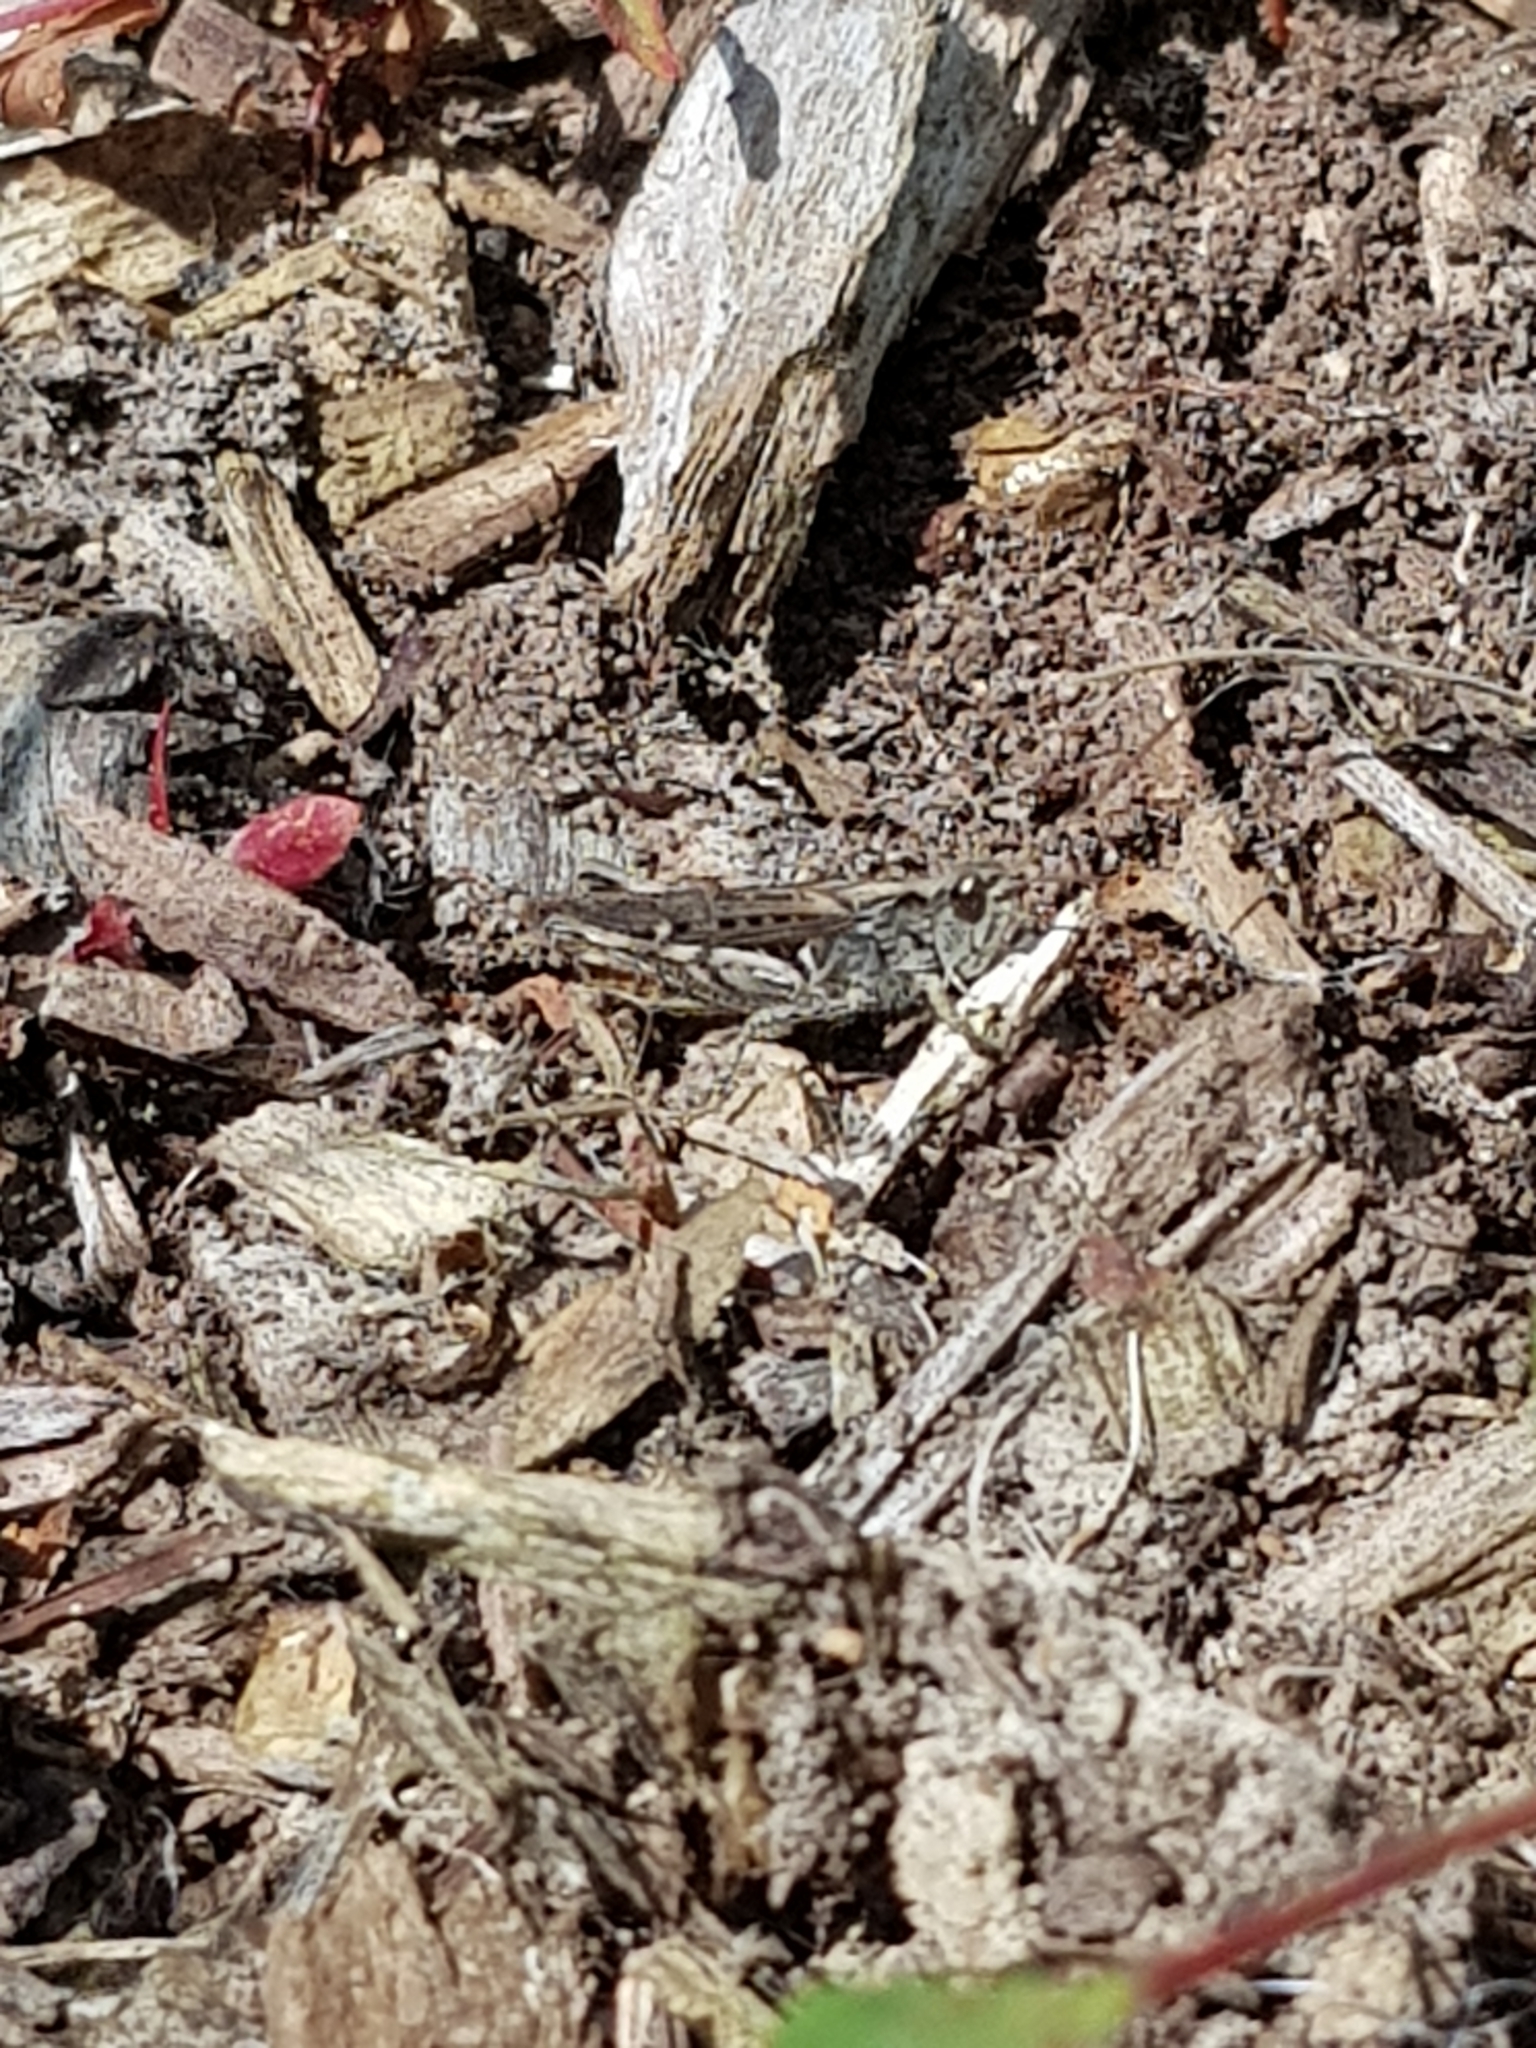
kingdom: Animalia
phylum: Arthropoda
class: Insecta
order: Orthoptera
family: Acrididae
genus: Chorthippus
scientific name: Chorthippus brunneus
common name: Field grasshopper
